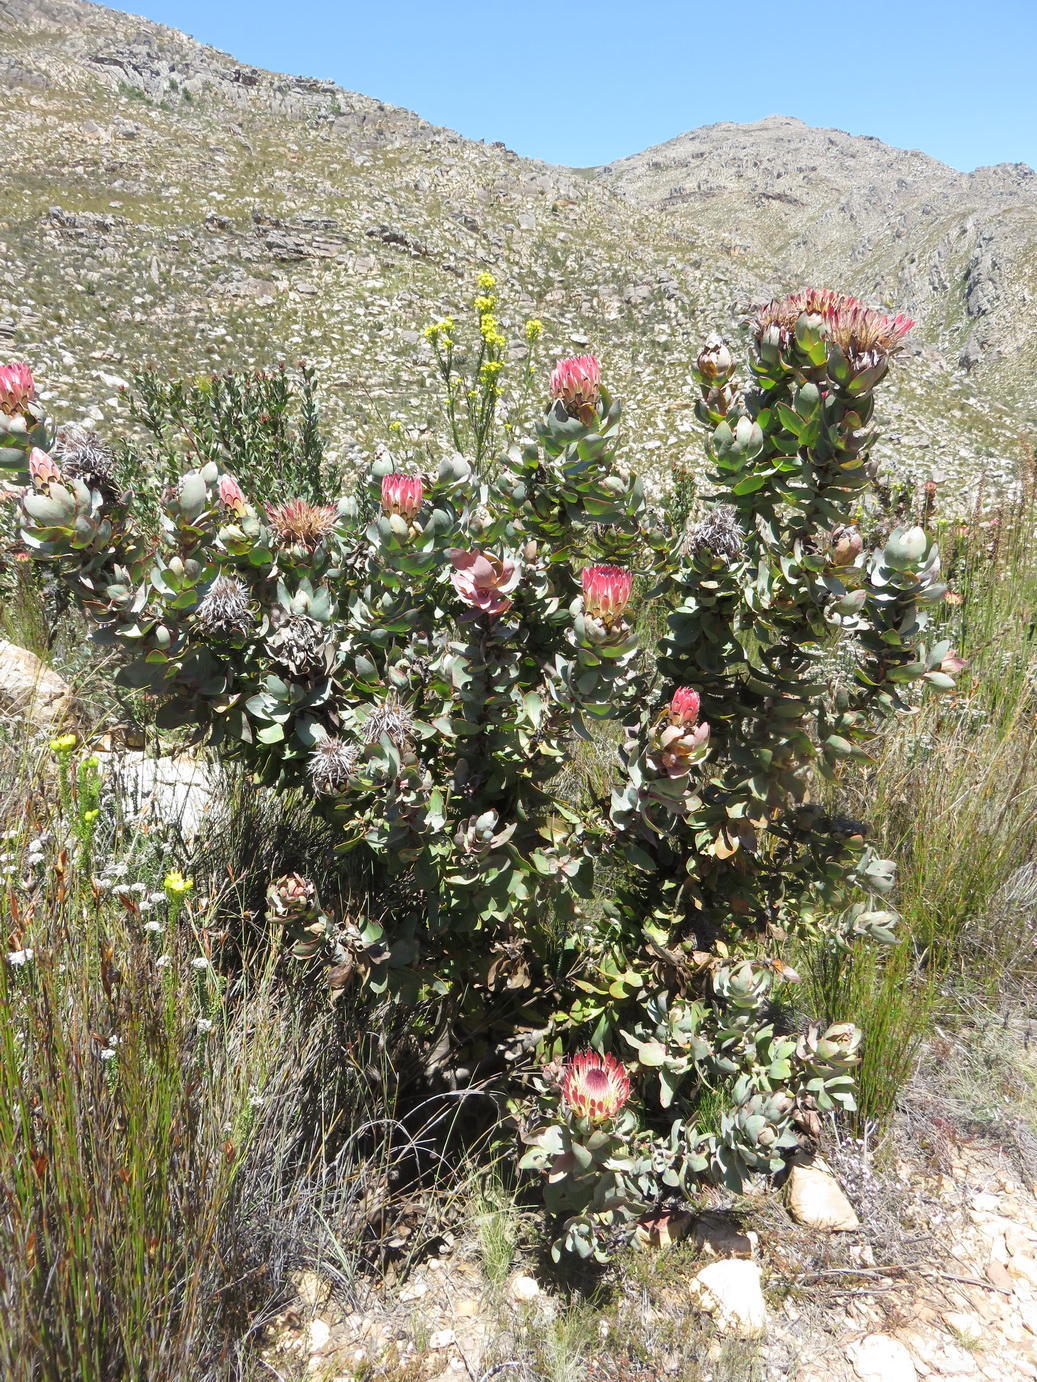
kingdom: Plantae
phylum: Tracheophyta
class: Magnoliopsida
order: Proteales
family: Proteaceae
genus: Protea
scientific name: Protea eximia
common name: Broad-leaved sugarbush
